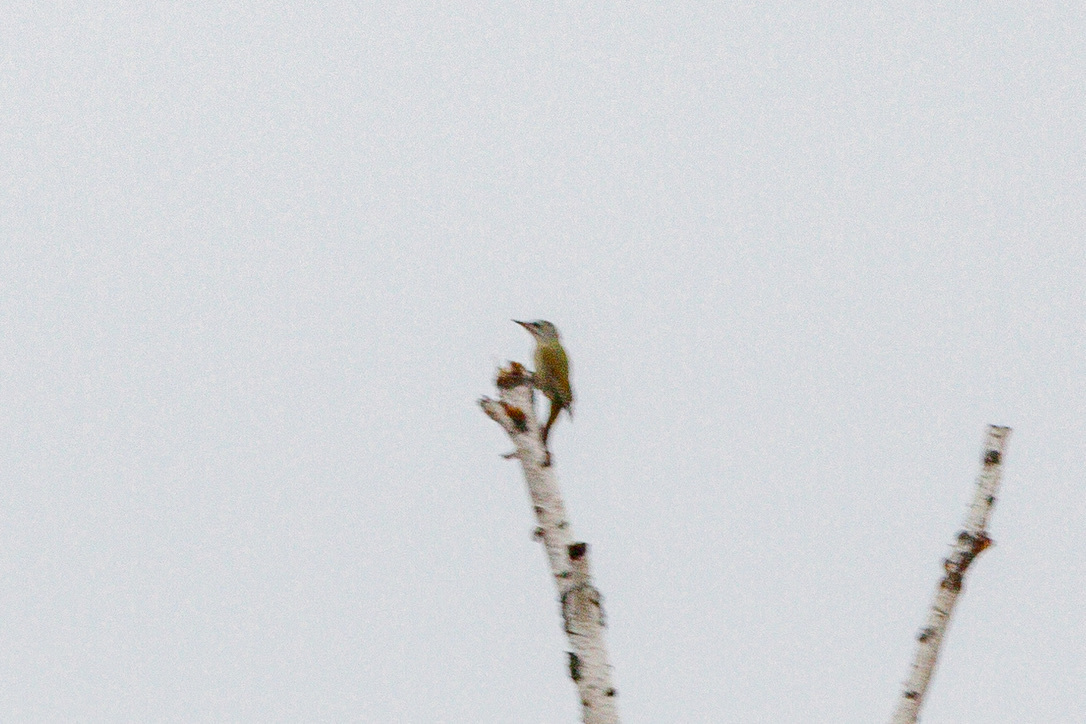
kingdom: Animalia
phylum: Chordata
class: Aves
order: Piciformes
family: Picidae
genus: Picus
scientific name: Picus canus
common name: Grey-headed woodpecker
